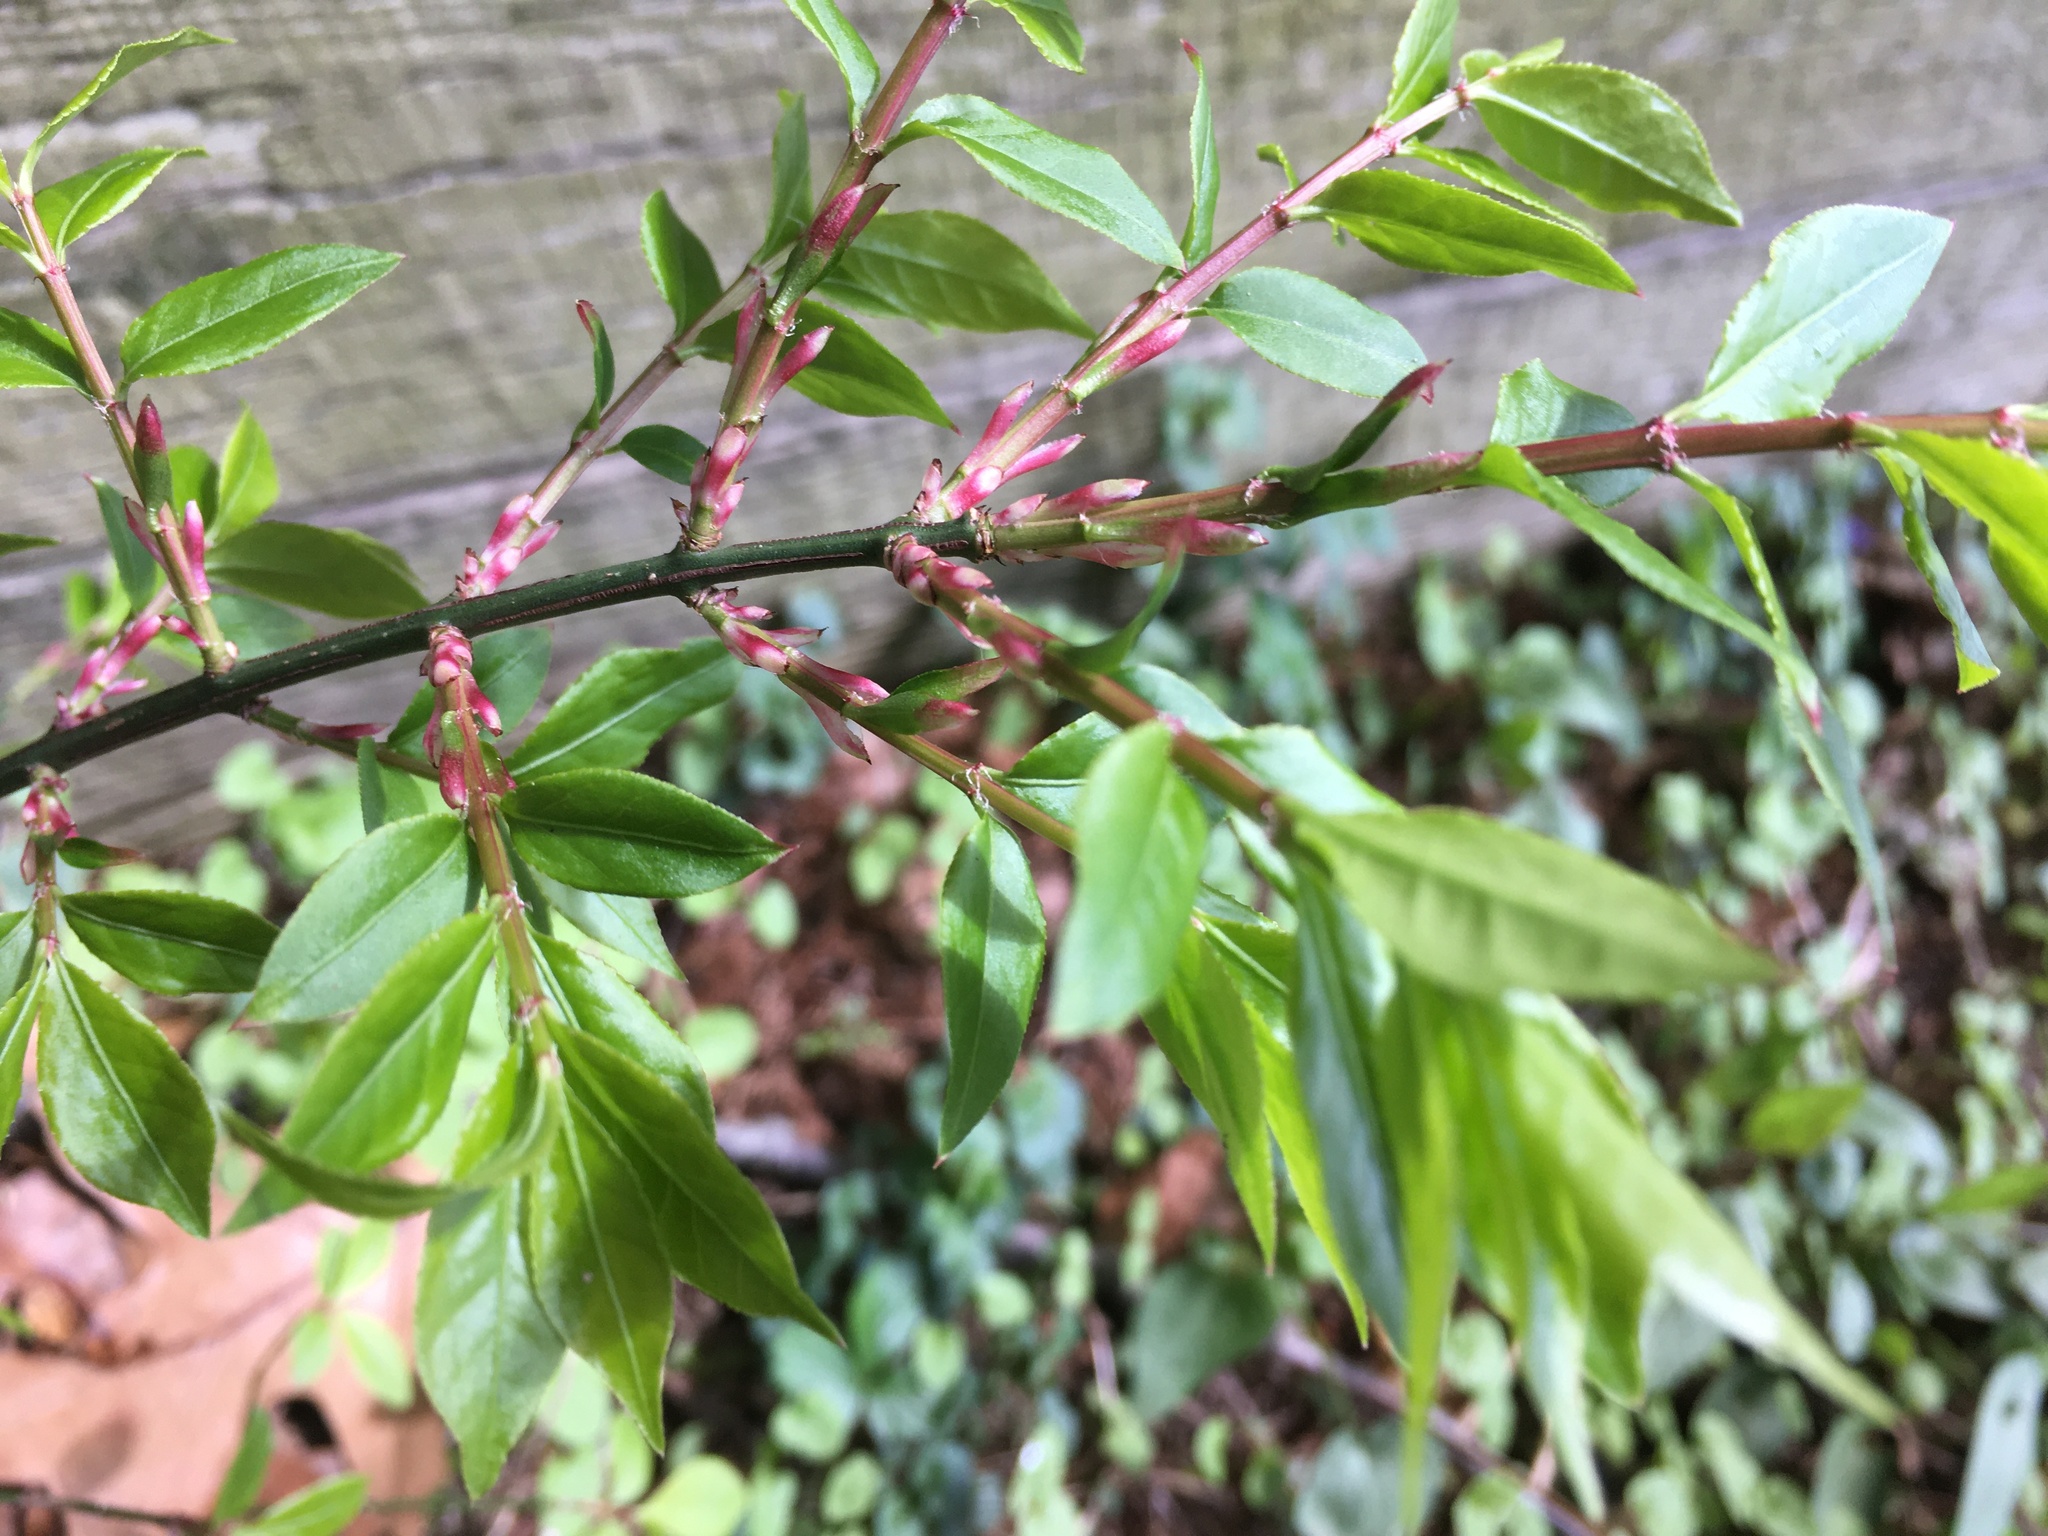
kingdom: Plantae
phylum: Tracheophyta
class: Magnoliopsida
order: Celastrales
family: Celastraceae
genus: Euonymus
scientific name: Euonymus alatus
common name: Winged euonymus
